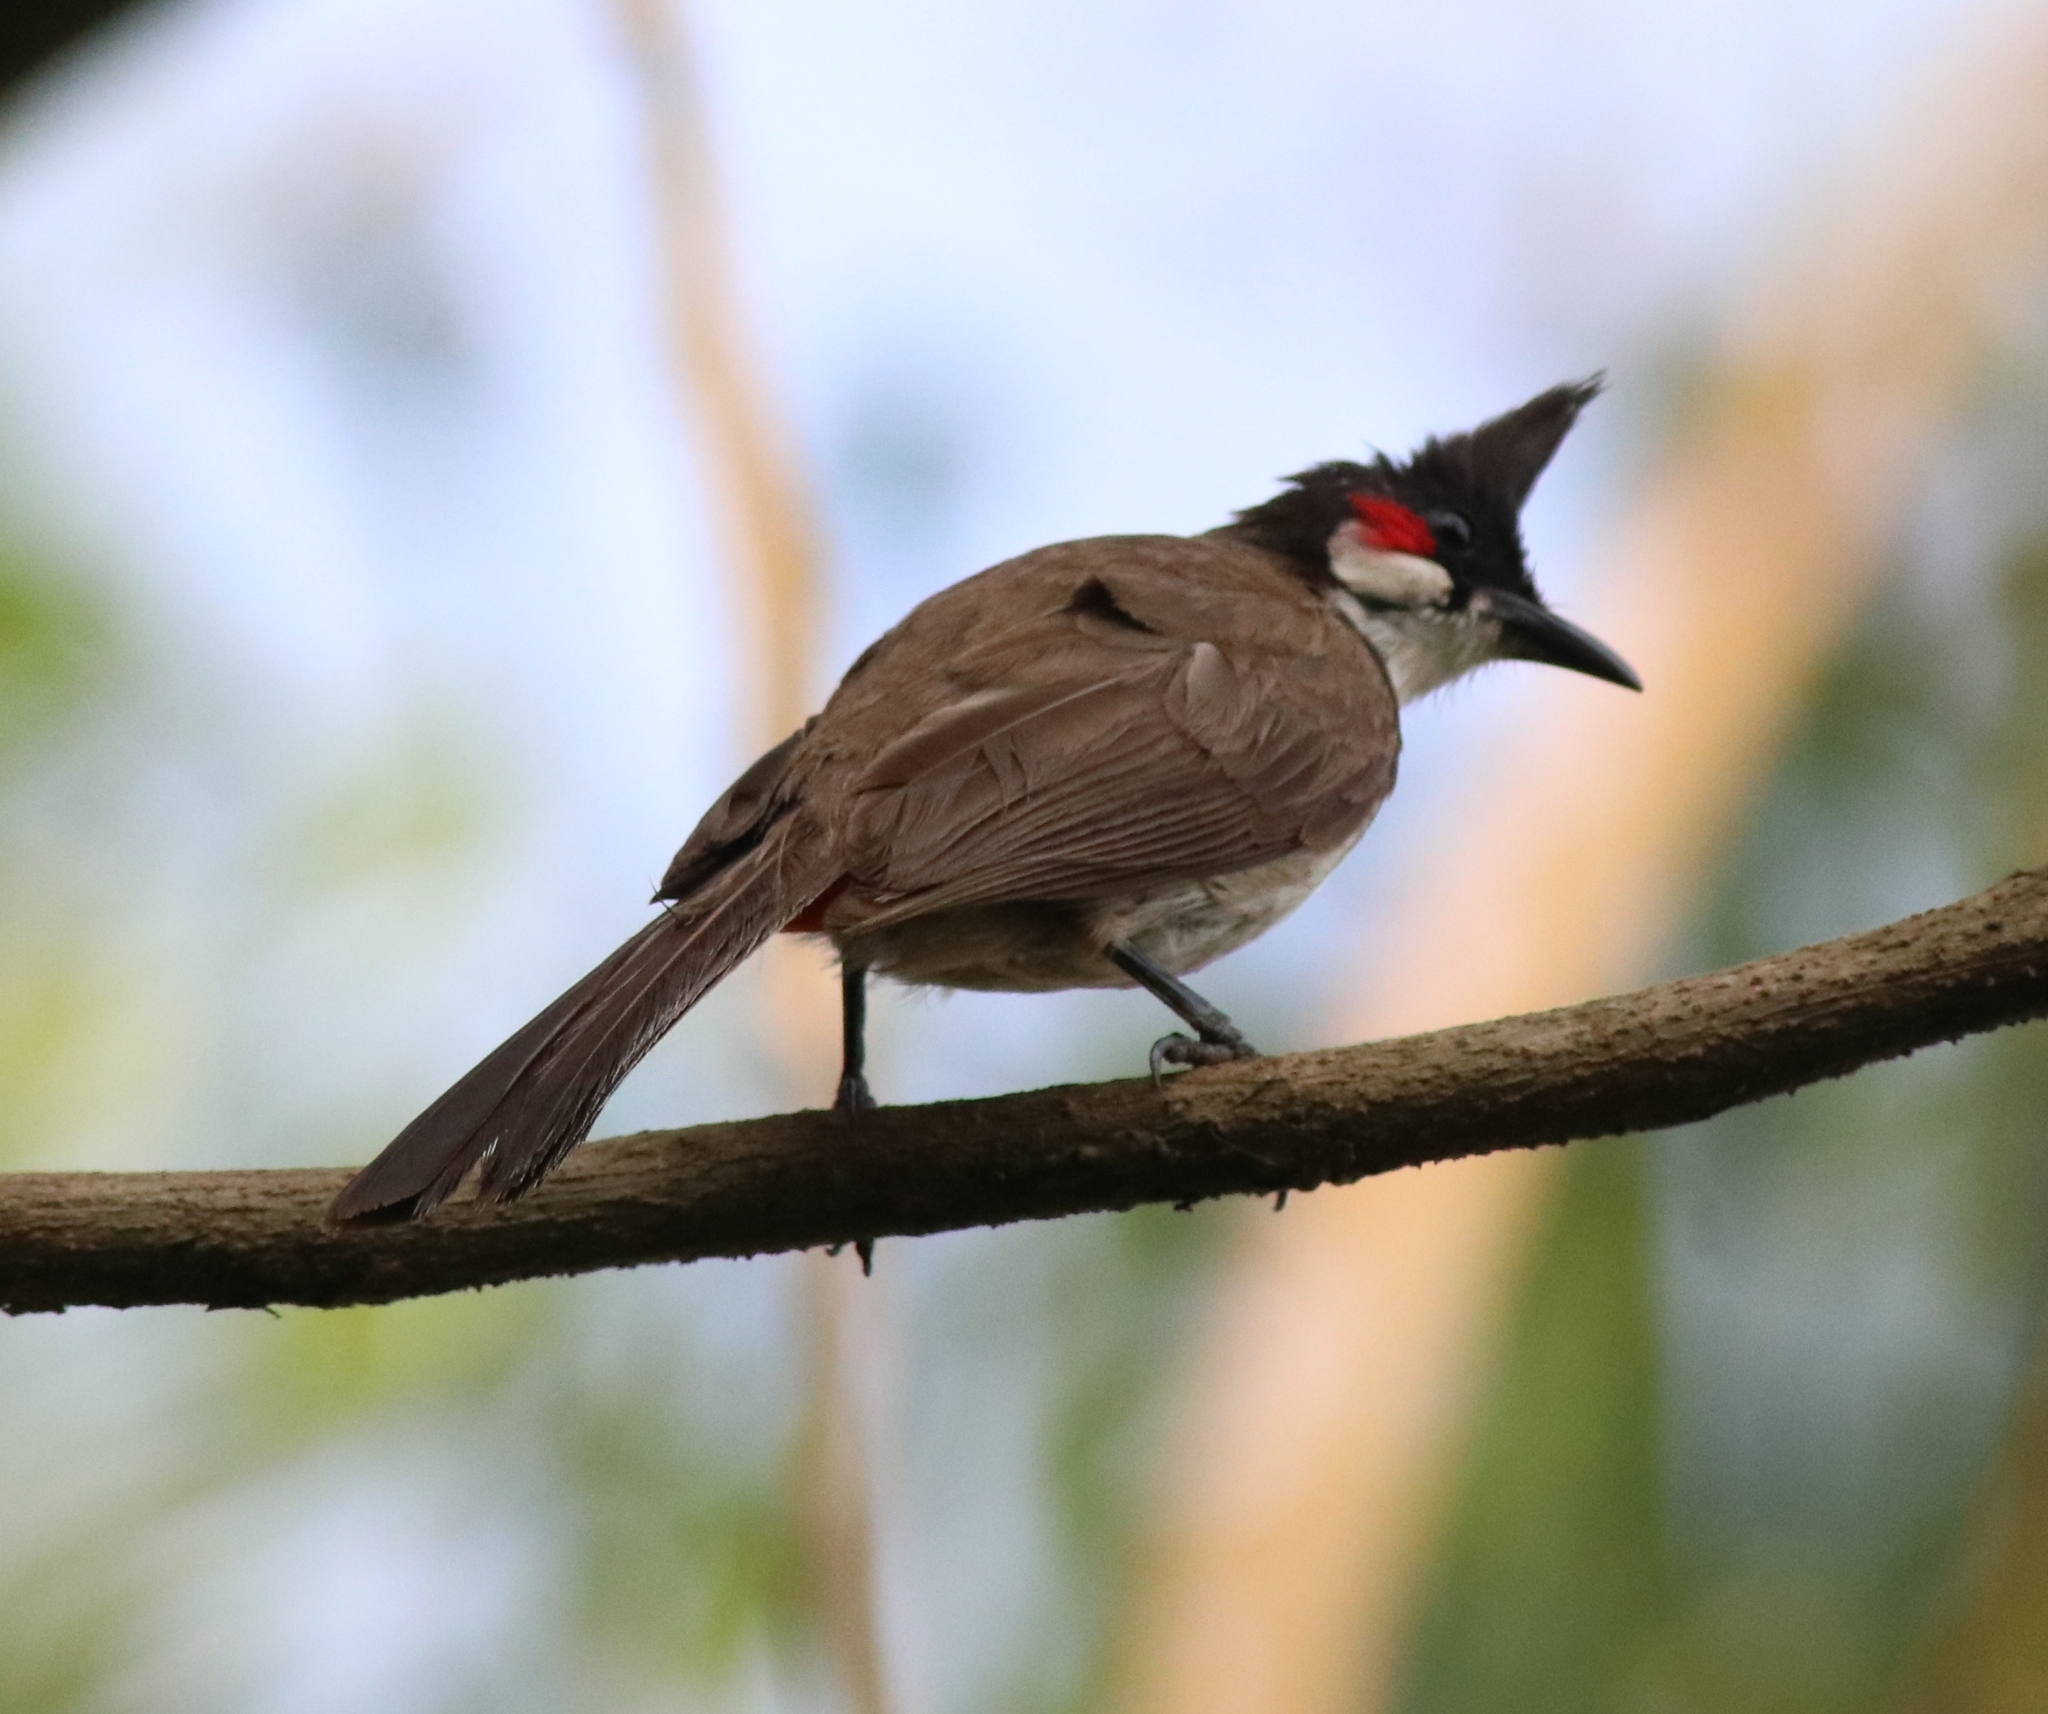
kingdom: Animalia
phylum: Chordata
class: Aves
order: Passeriformes
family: Pycnonotidae
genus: Pycnonotus
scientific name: Pycnonotus jocosus
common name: Red-whiskered bulbul
